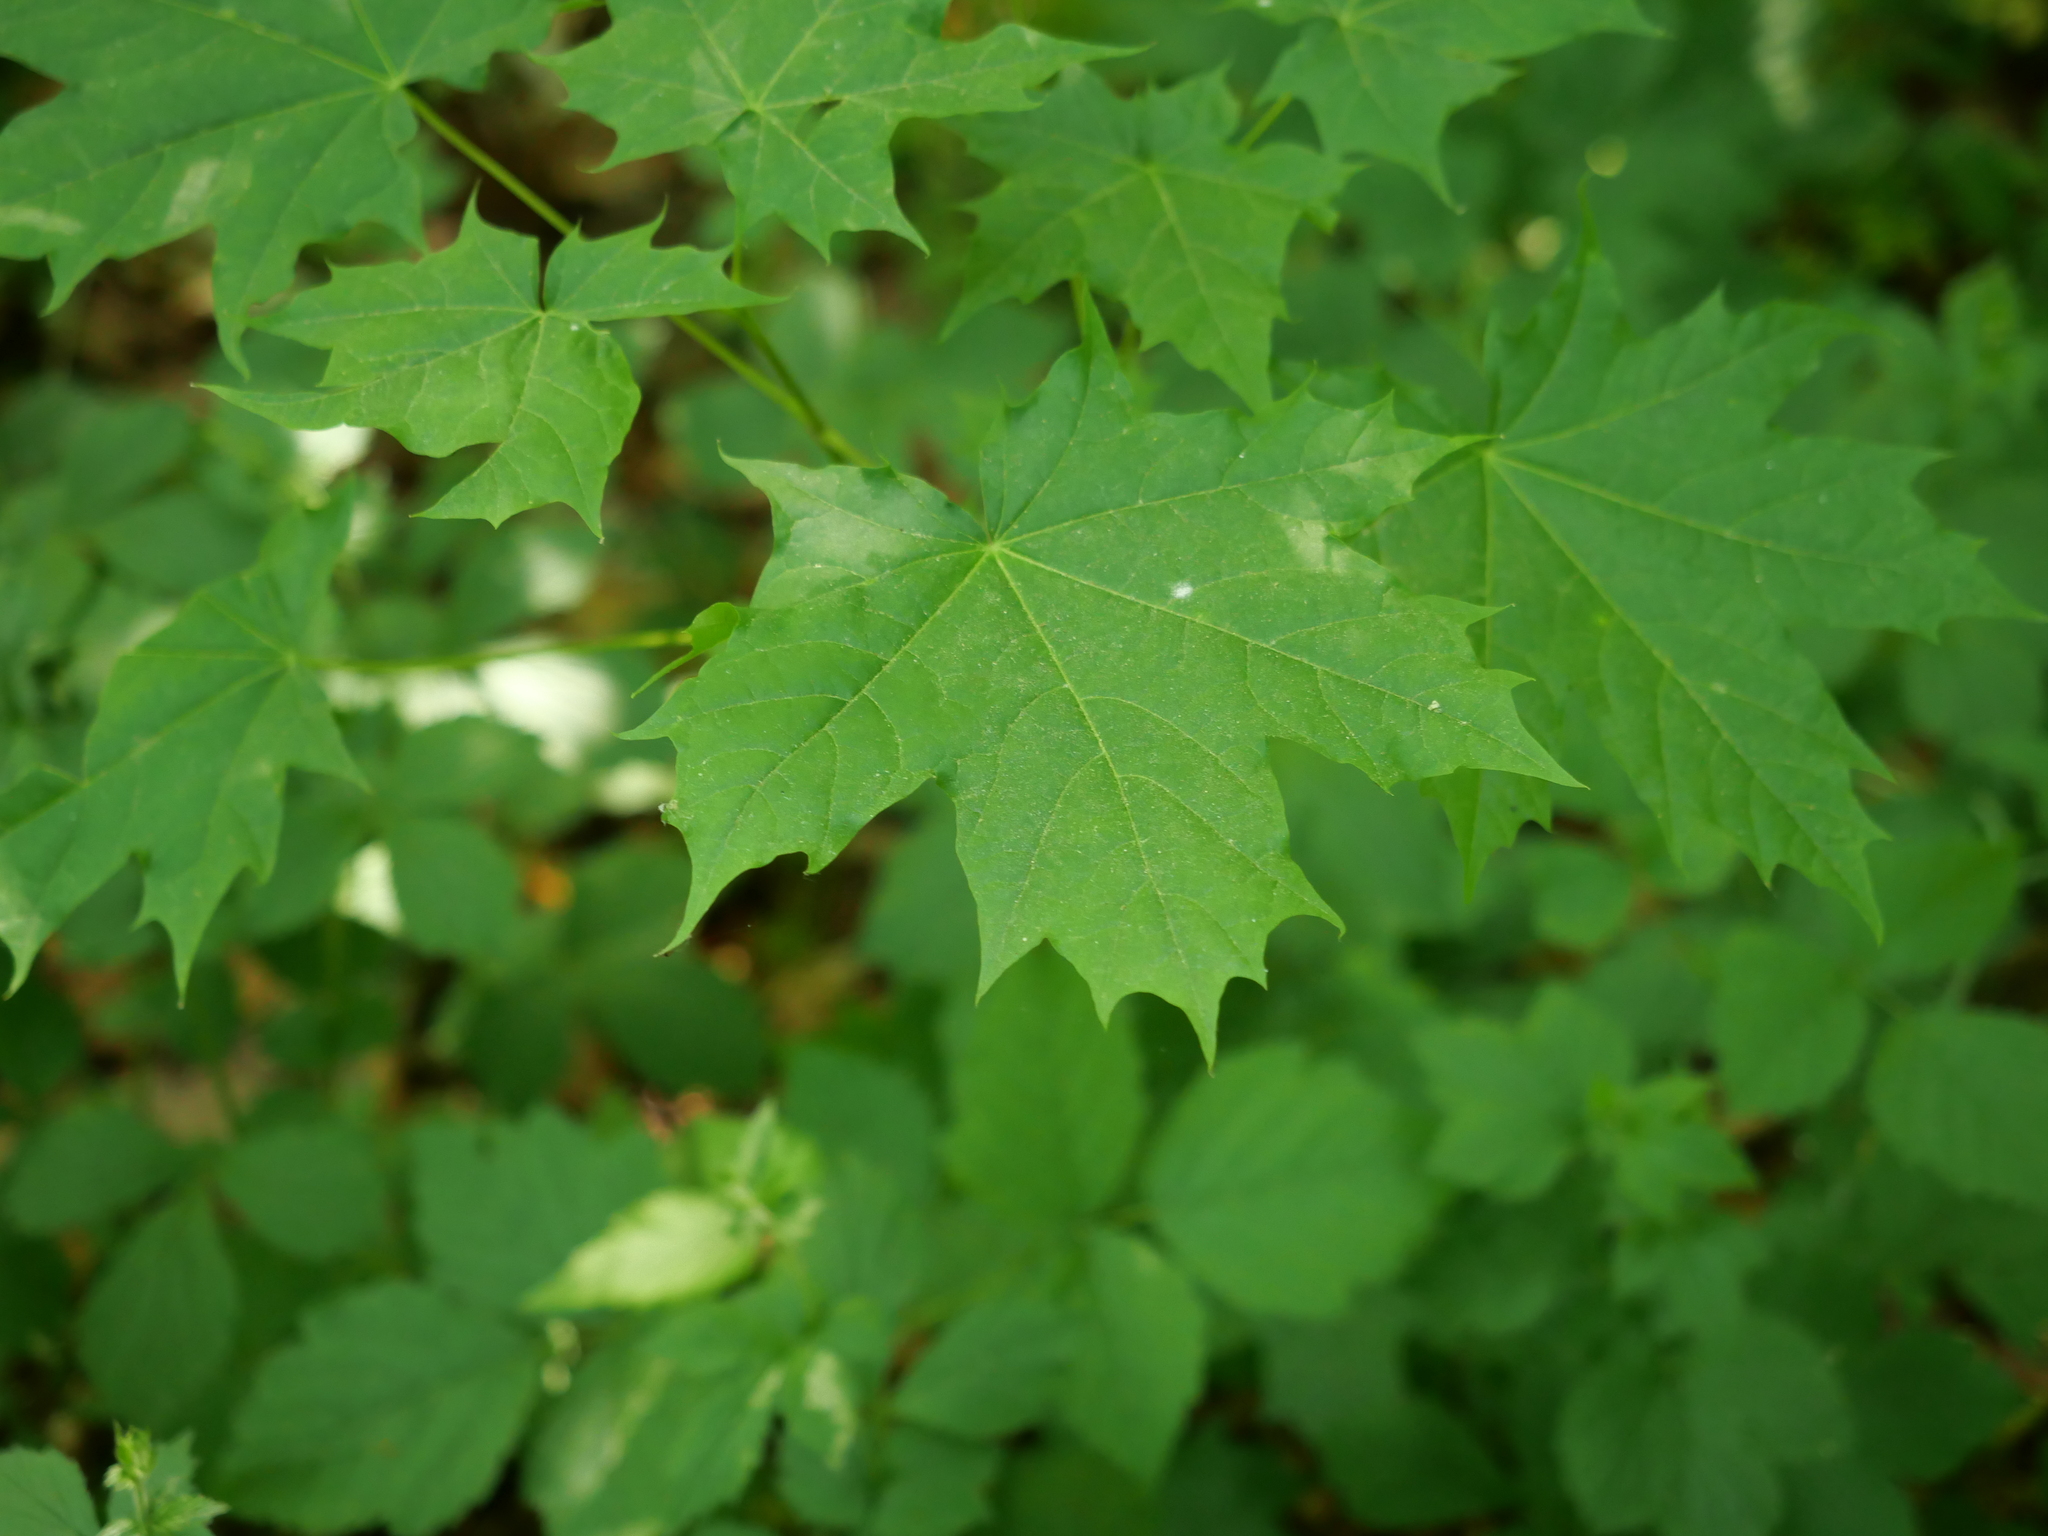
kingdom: Plantae
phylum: Tracheophyta
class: Magnoliopsida
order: Sapindales
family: Sapindaceae
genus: Acer
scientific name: Acer platanoides
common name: Norway maple
